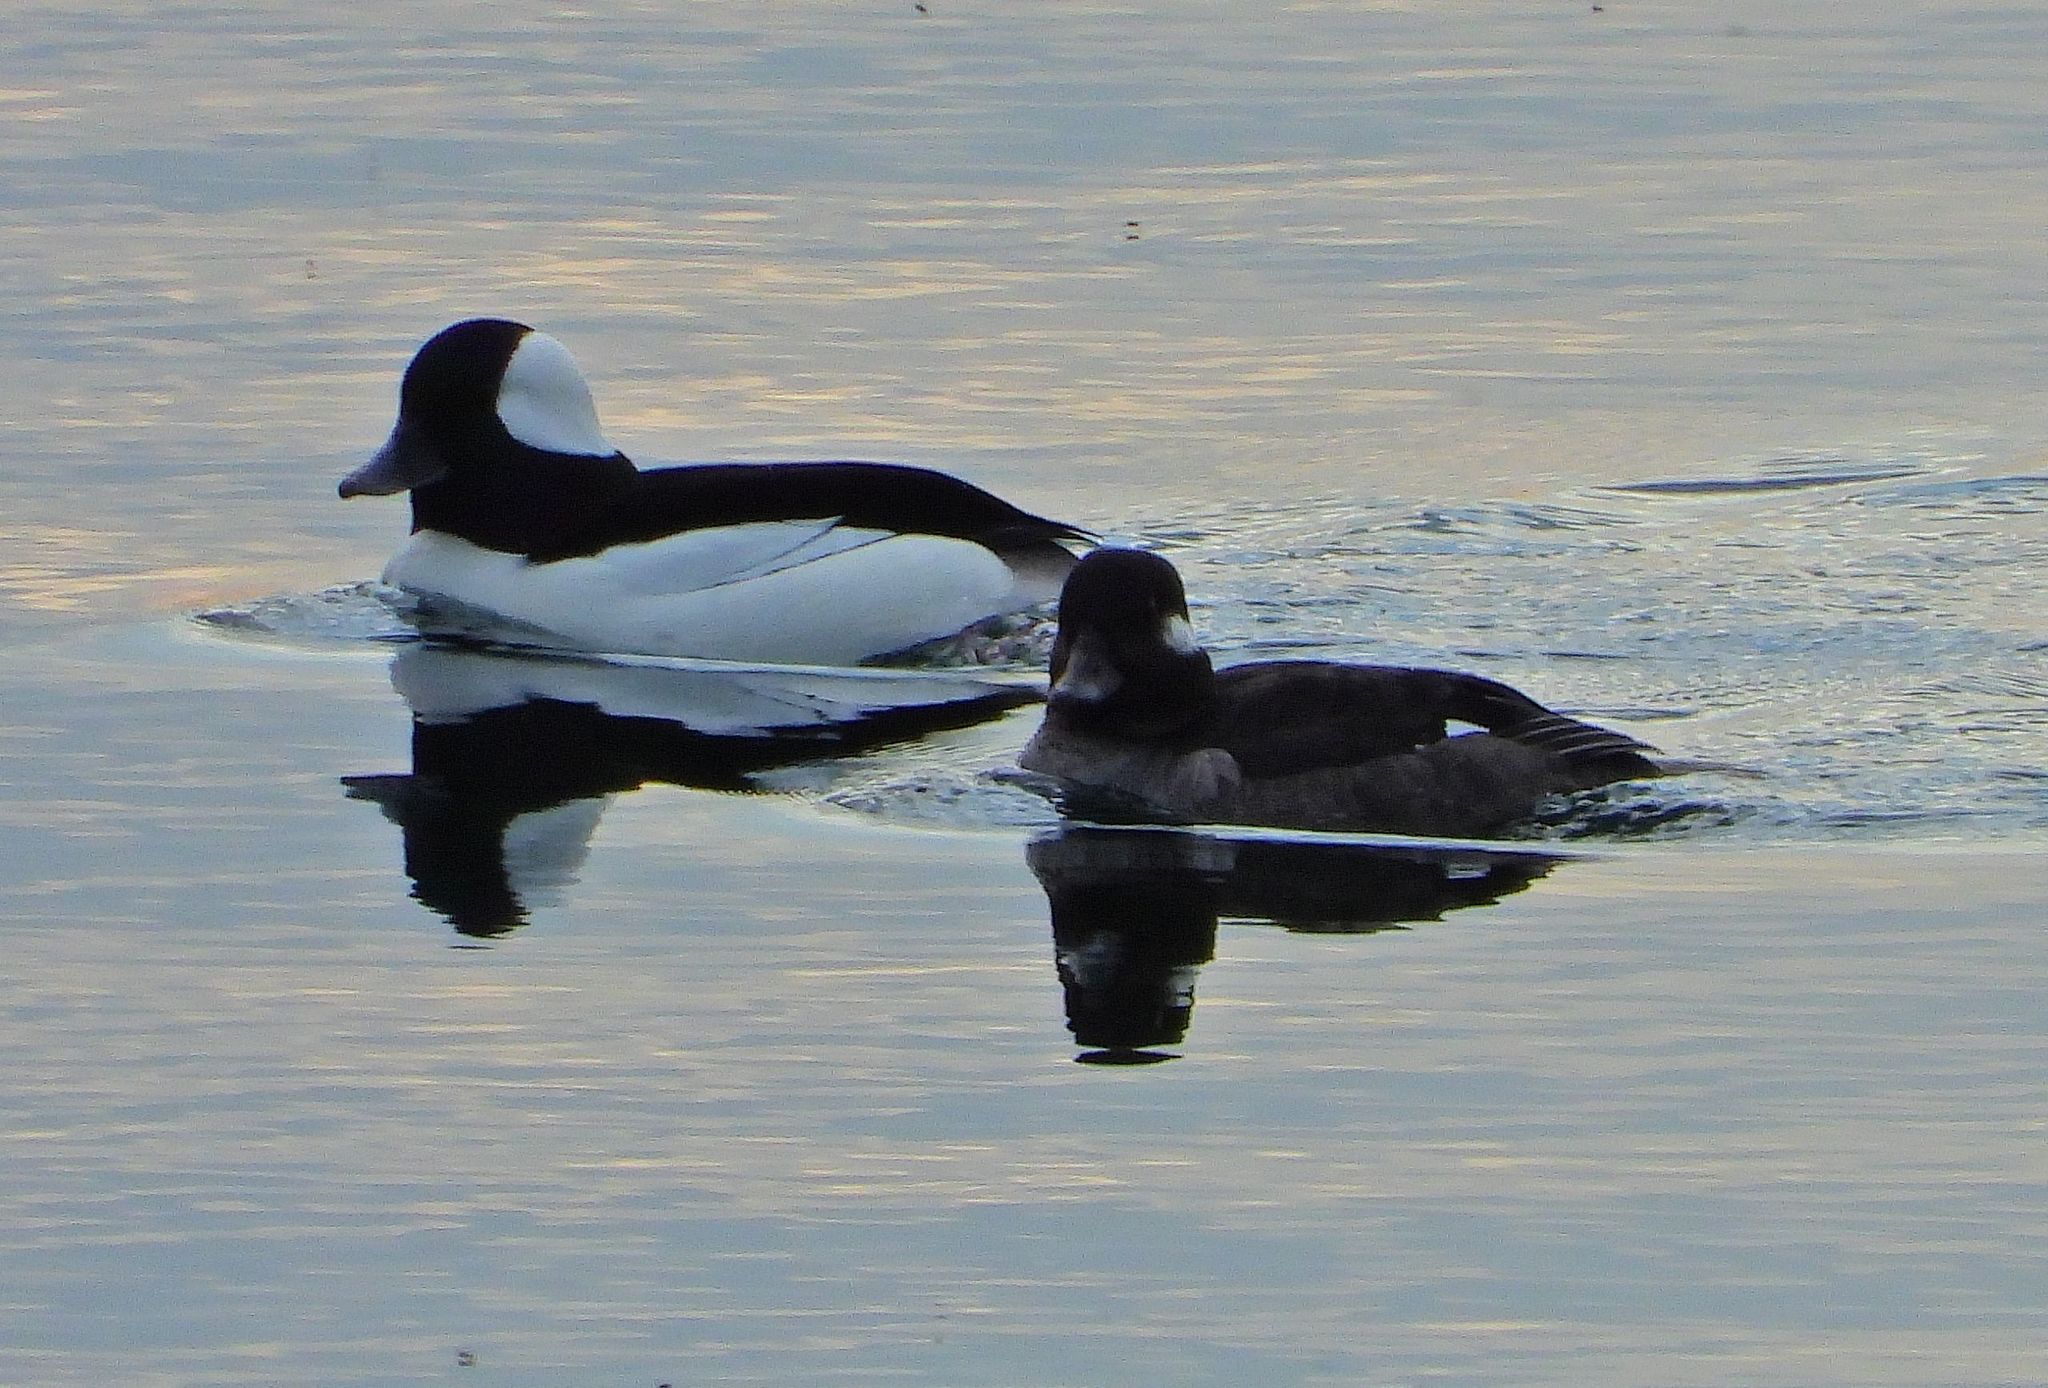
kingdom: Animalia
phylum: Chordata
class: Aves
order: Anseriformes
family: Anatidae
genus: Bucephala
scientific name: Bucephala albeola
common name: Bufflehead
